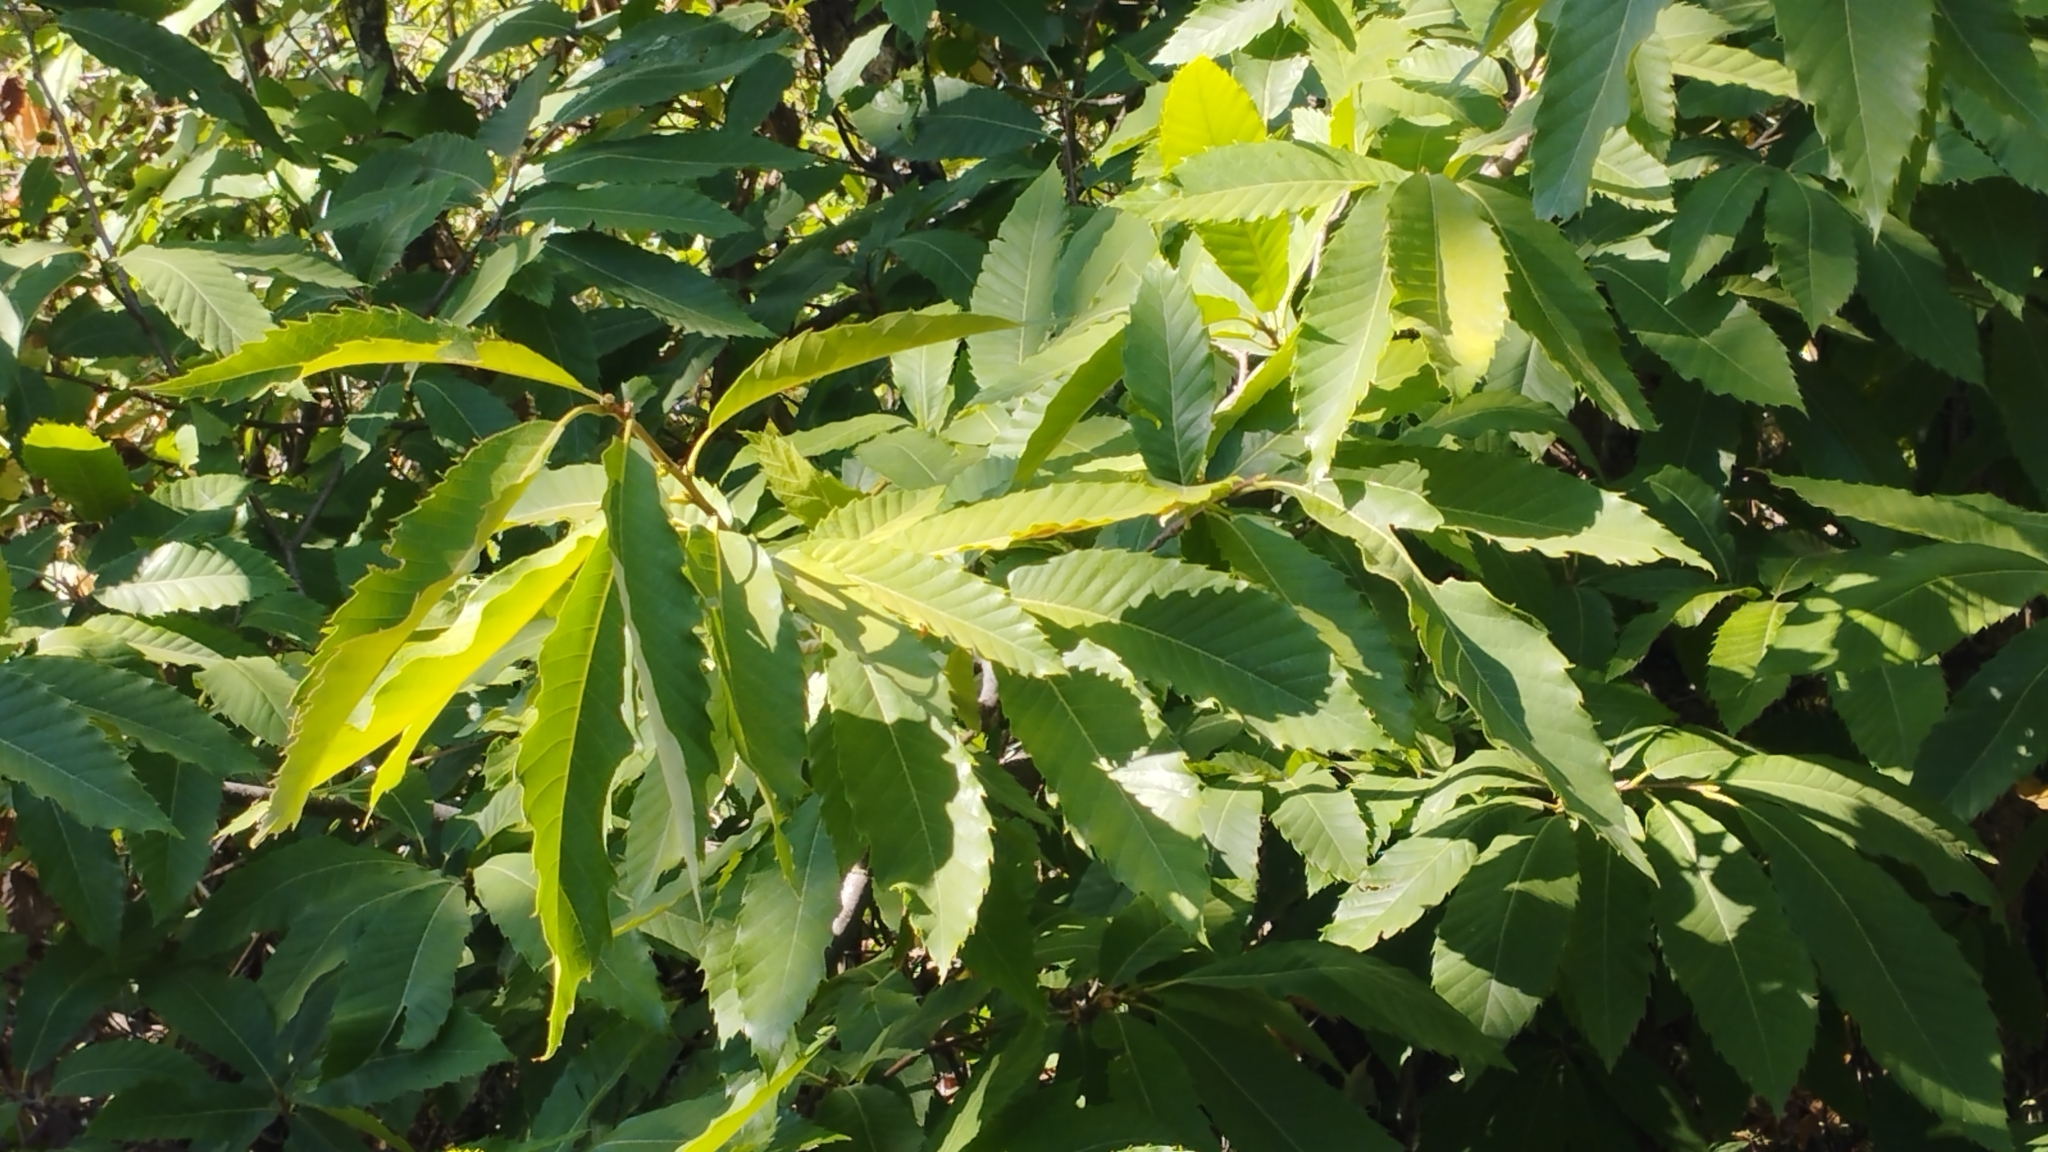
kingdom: Plantae
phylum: Tracheophyta
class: Magnoliopsida
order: Fagales
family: Fagaceae
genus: Castanea
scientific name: Castanea sativa
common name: Sweet chestnut
